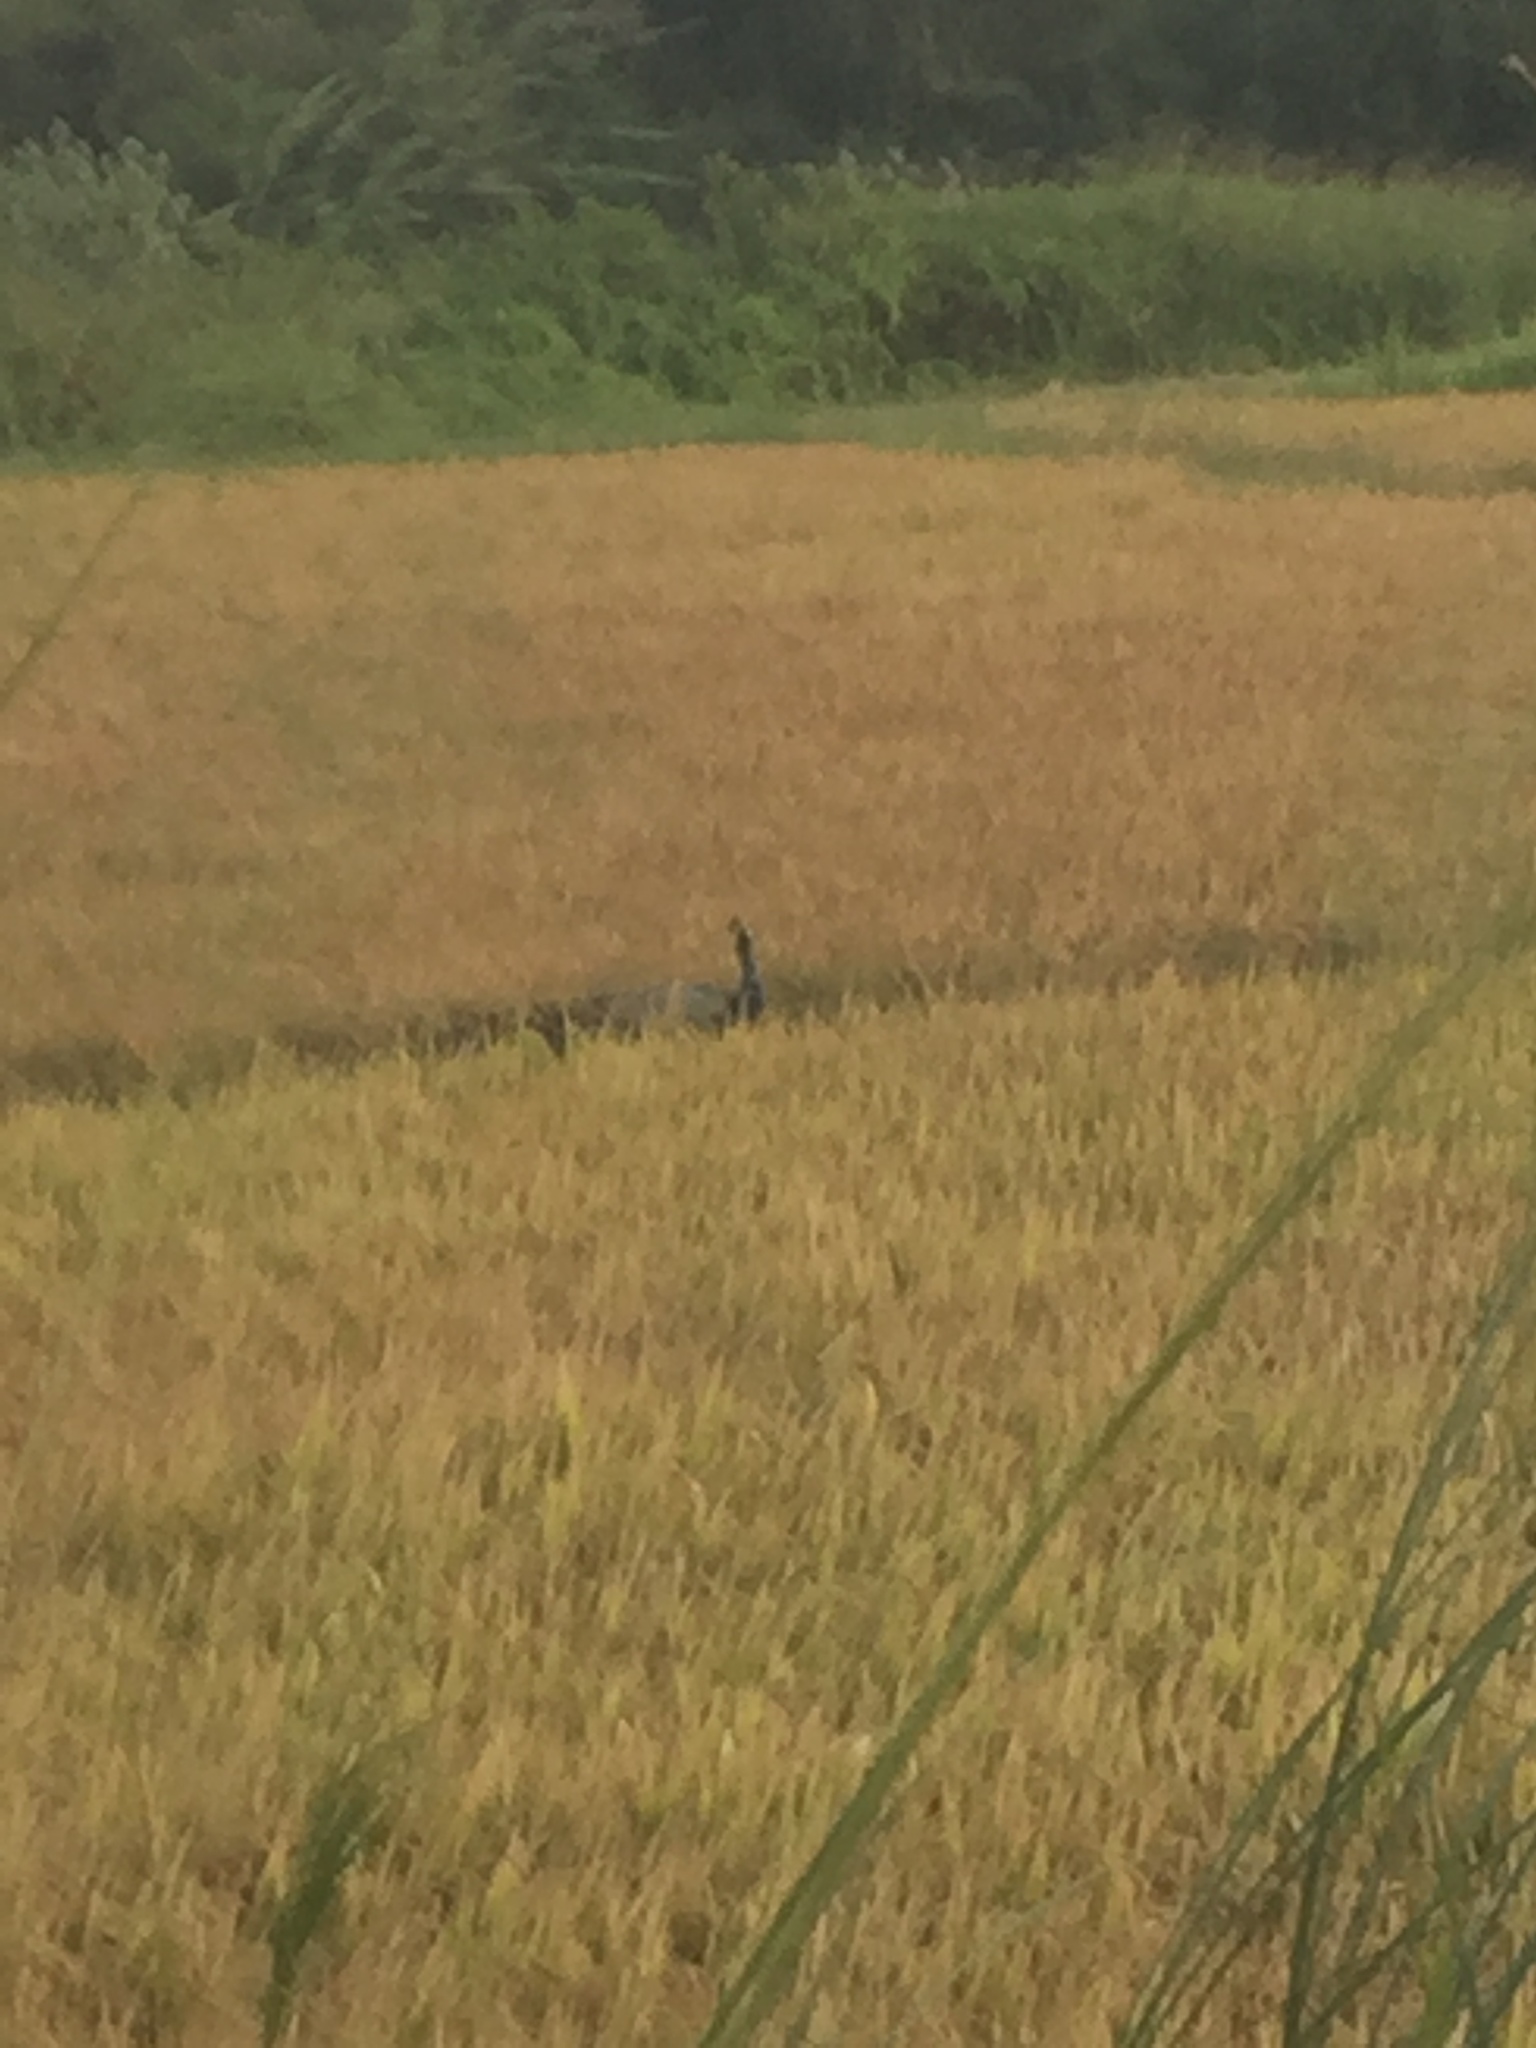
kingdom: Animalia
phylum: Chordata
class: Aves
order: Galliformes
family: Phasianidae
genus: Pavo
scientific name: Pavo cristatus
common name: Indian peafowl
